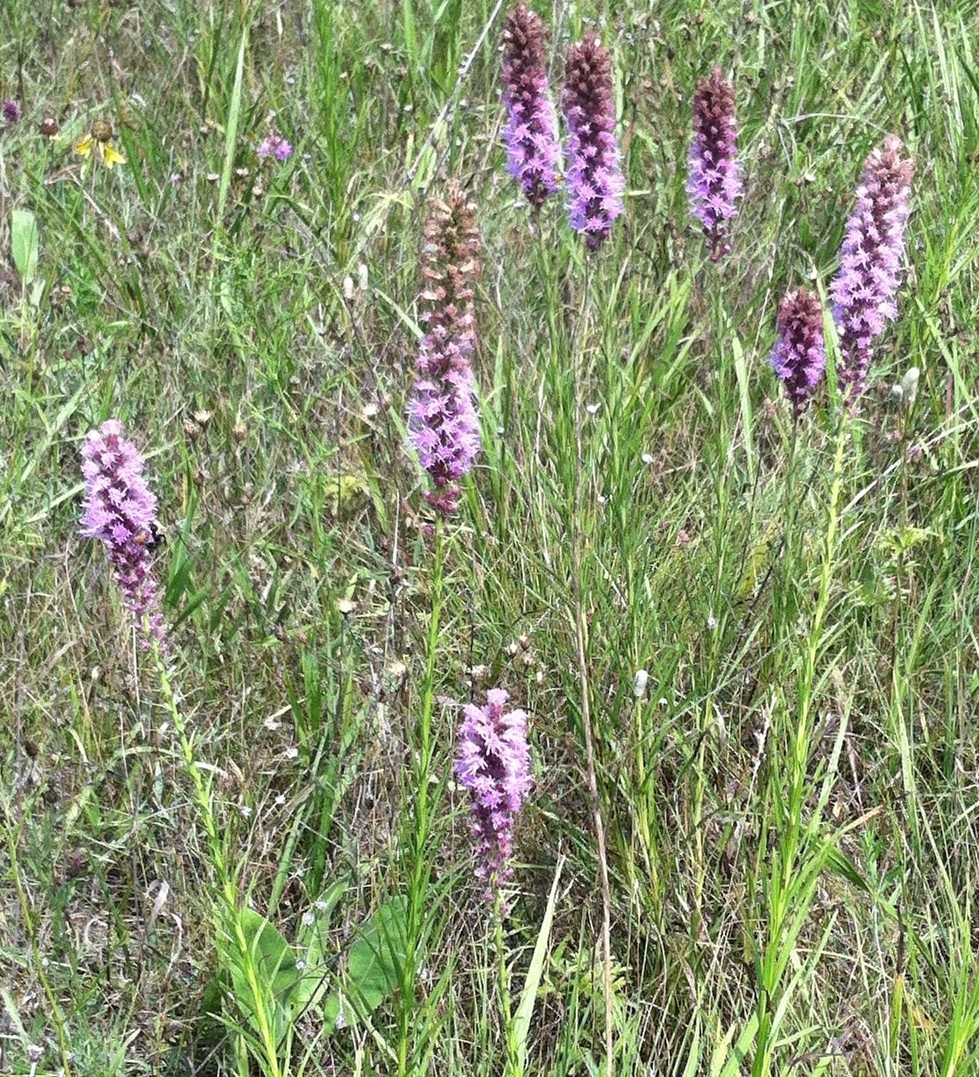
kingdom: Plantae
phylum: Tracheophyta
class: Magnoliopsida
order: Asterales
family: Asteraceae
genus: Liatris
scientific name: Liatris pycnostachya
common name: Cattail gayfeather
